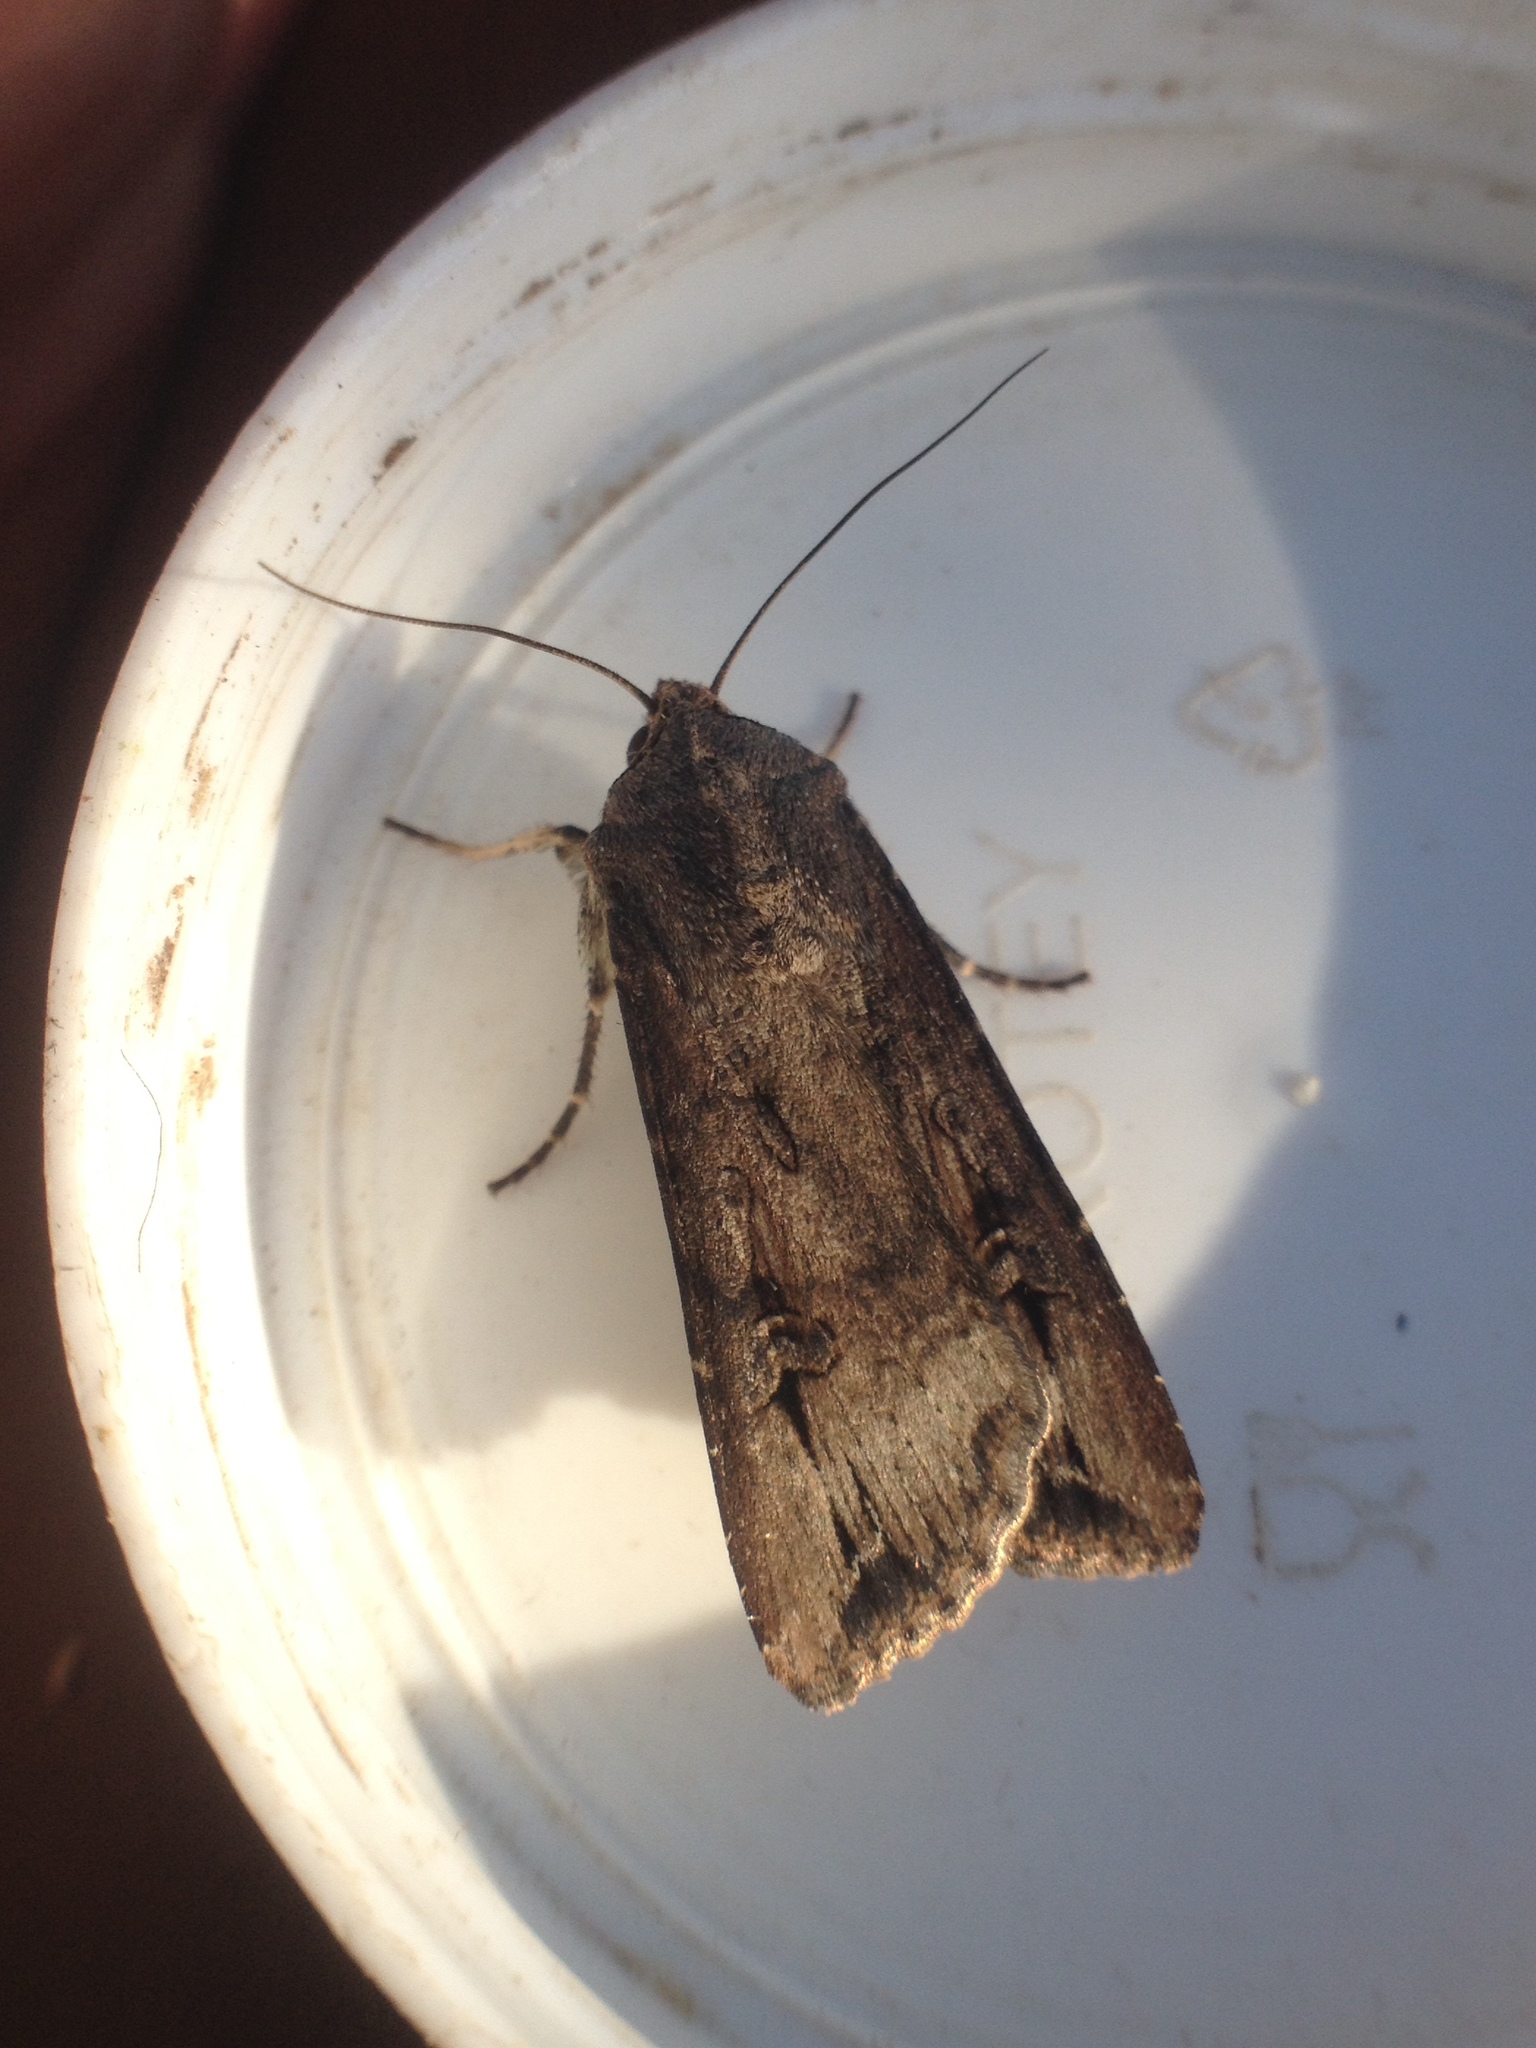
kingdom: Animalia
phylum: Arthropoda
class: Insecta
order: Lepidoptera
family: Noctuidae
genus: Agrotis
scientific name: Agrotis ipsilon
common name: Dark sword-grass
